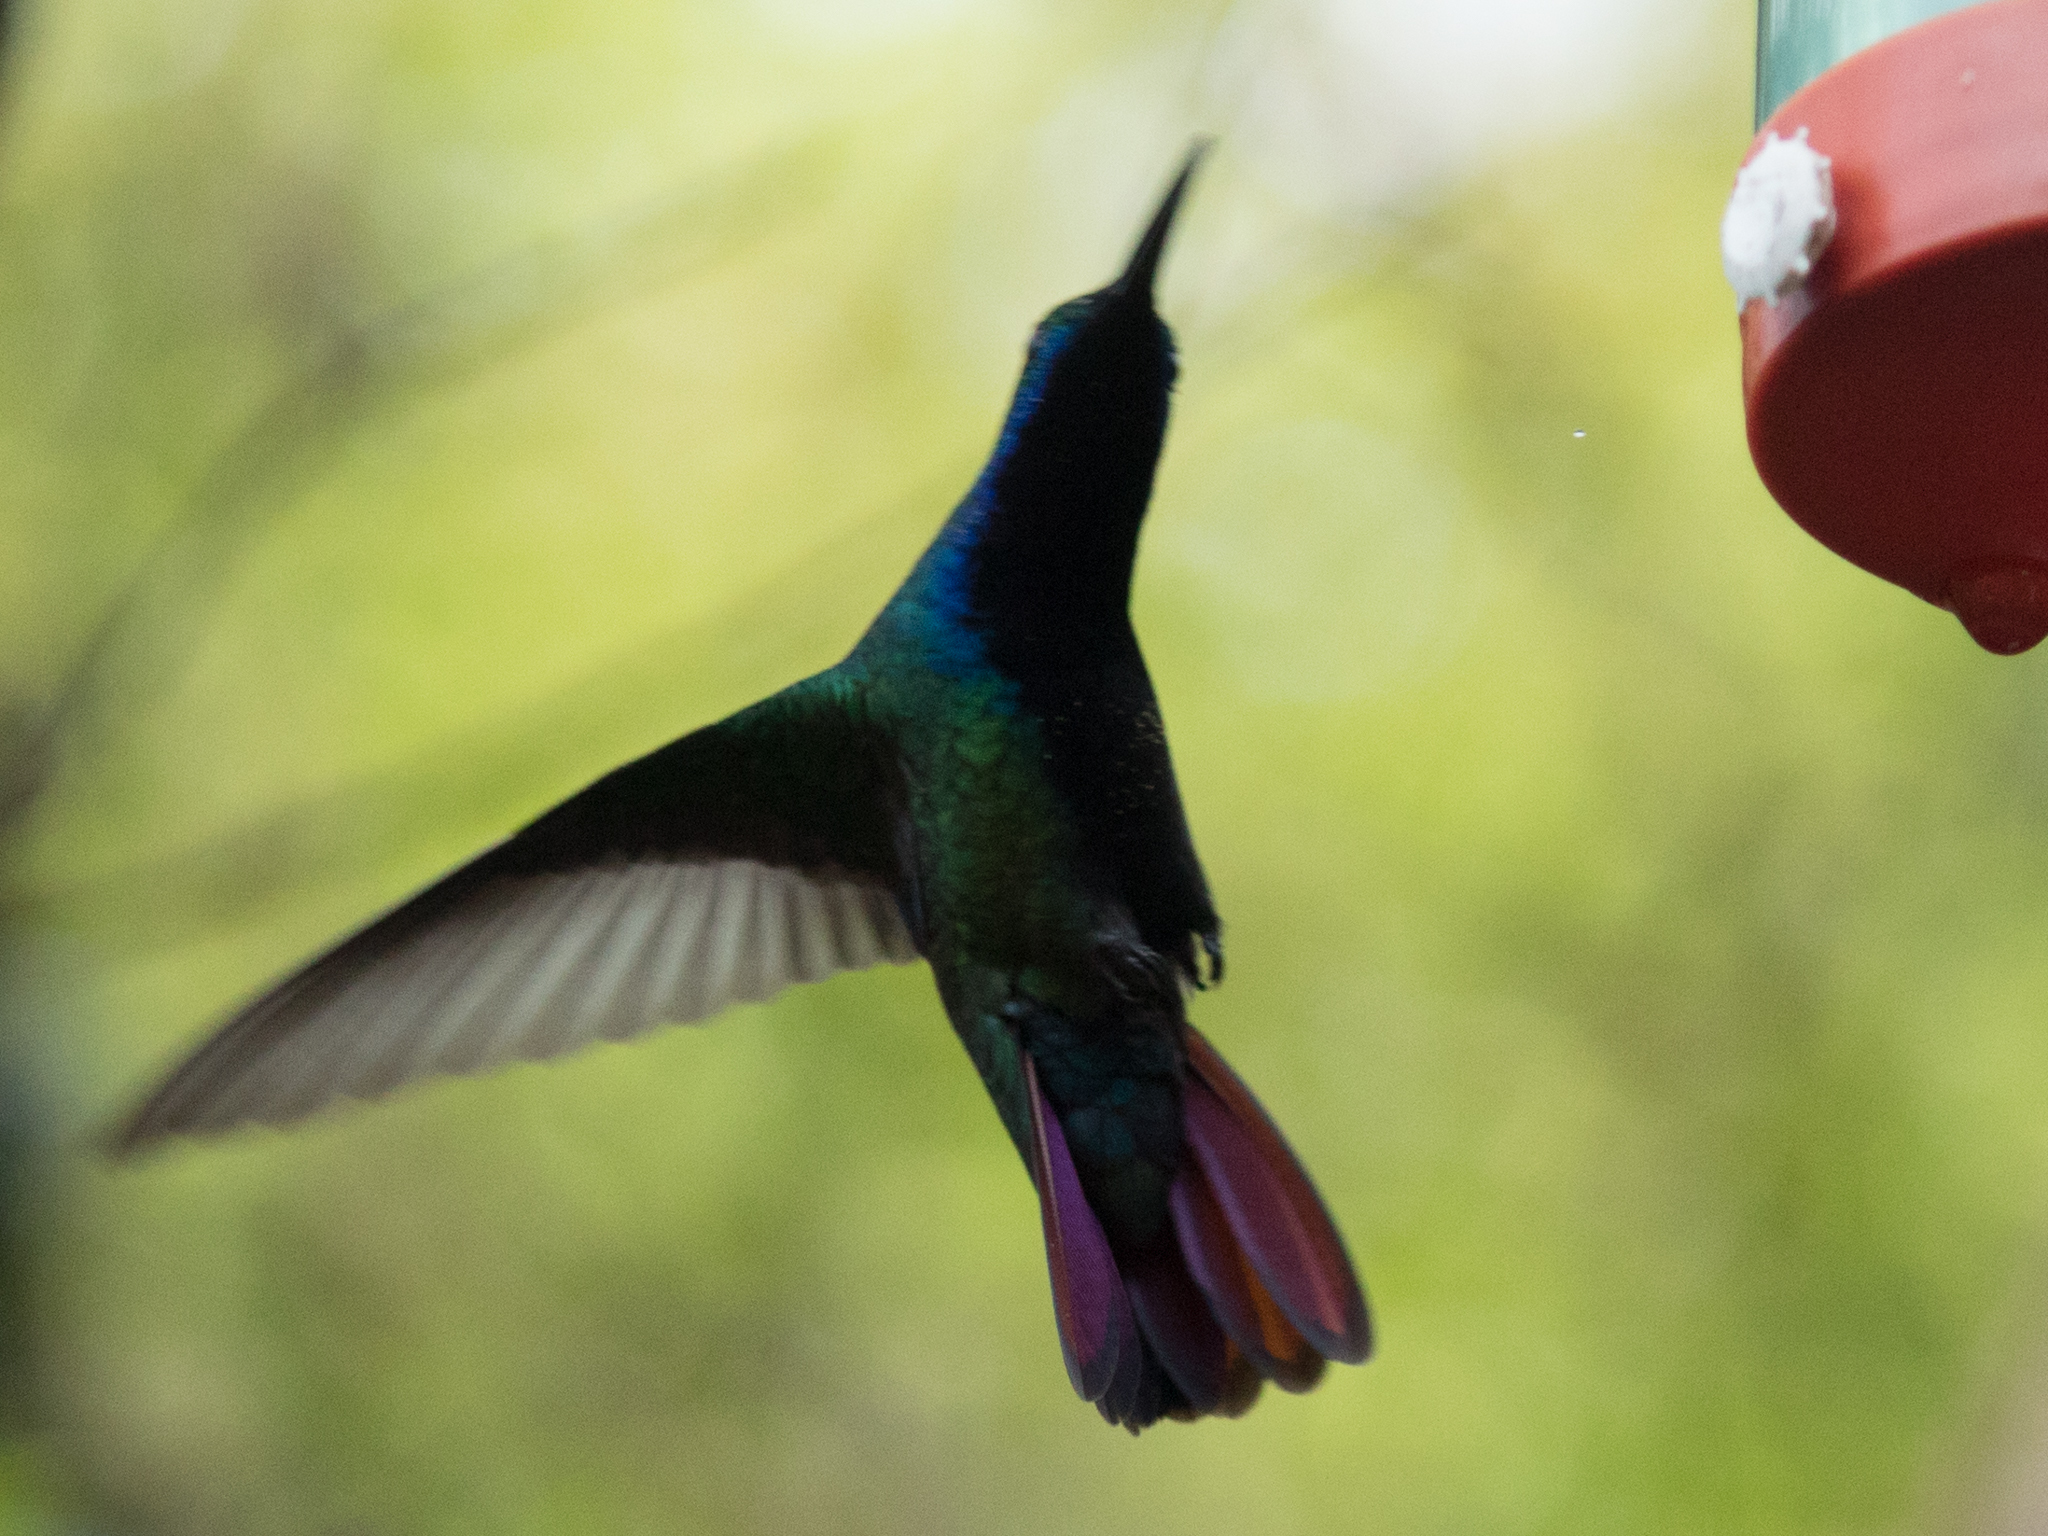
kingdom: Animalia
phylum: Chordata
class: Aves
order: Apodiformes
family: Trochilidae
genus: Anthracothorax
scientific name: Anthracothorax nigricollis
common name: Black-throated mango
